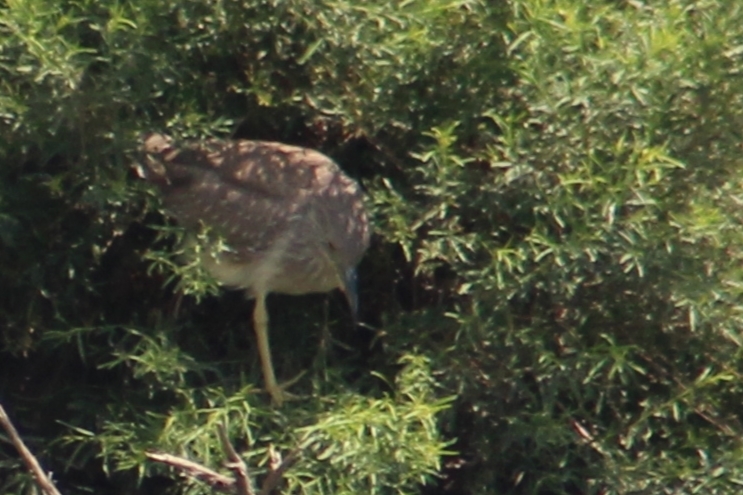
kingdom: Animalia
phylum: Chordata
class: Aves
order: Pelecaniformes
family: Ardeidae
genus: Nycticorax
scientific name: Nycticorax nycticorax
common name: Black-crowned night heron
